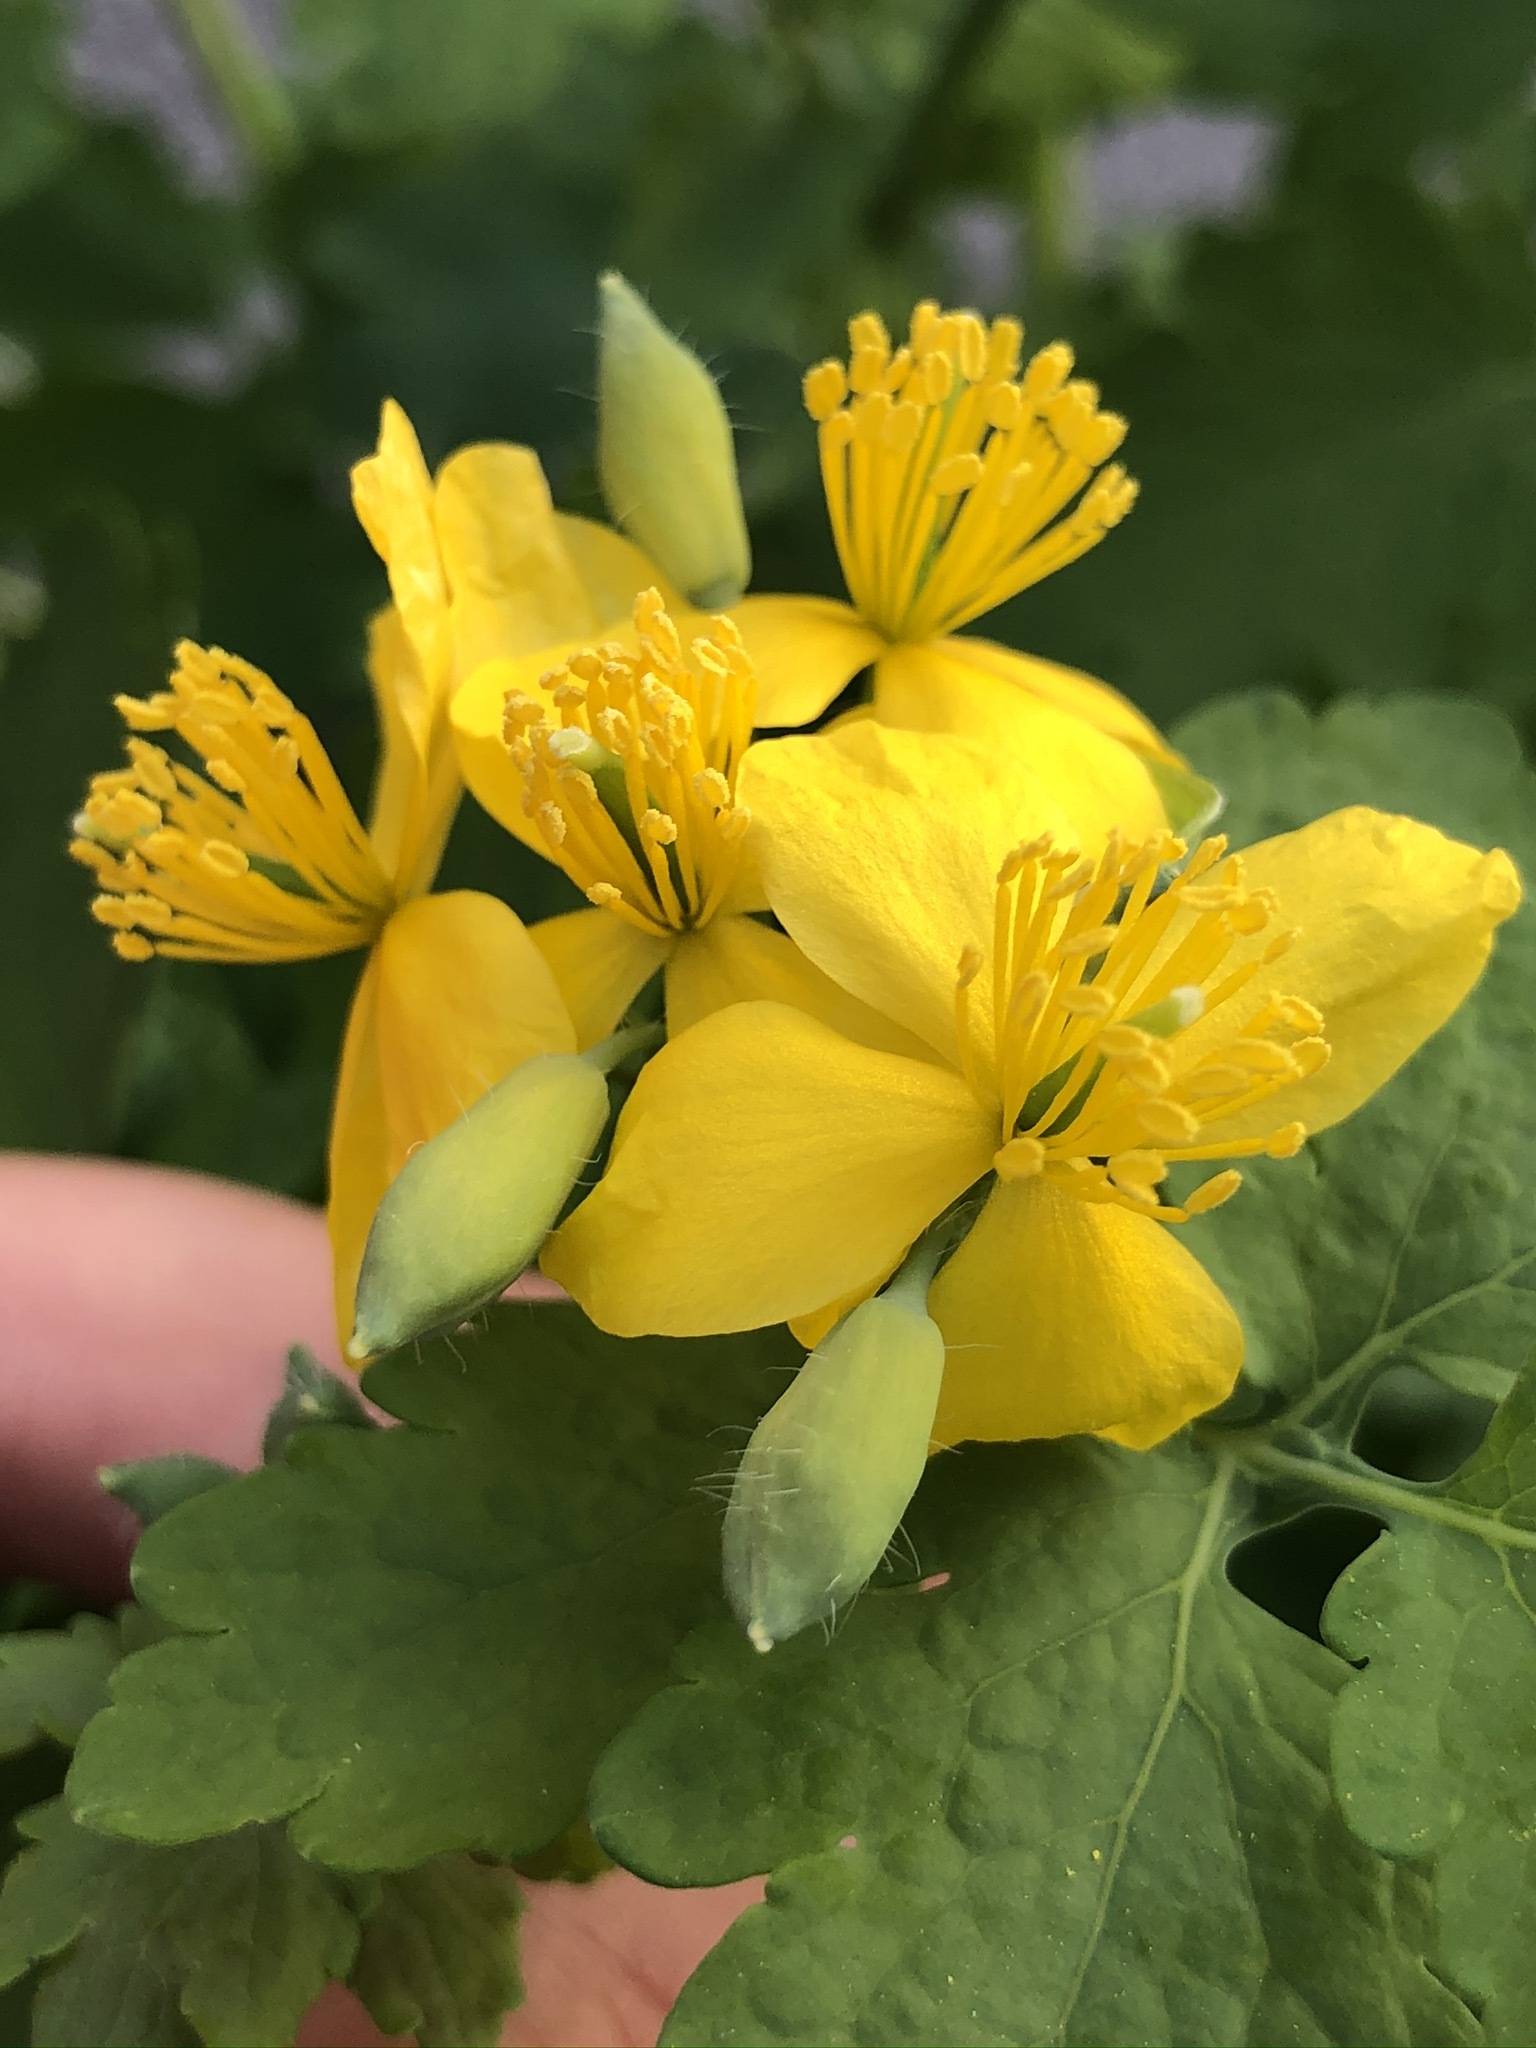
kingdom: Plantae
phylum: Tracheophyta
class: Magnoliopsida
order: Ranunculales
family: Papaveraceae
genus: Chelidonium
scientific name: Chelidonium majus
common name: Greater celandine
